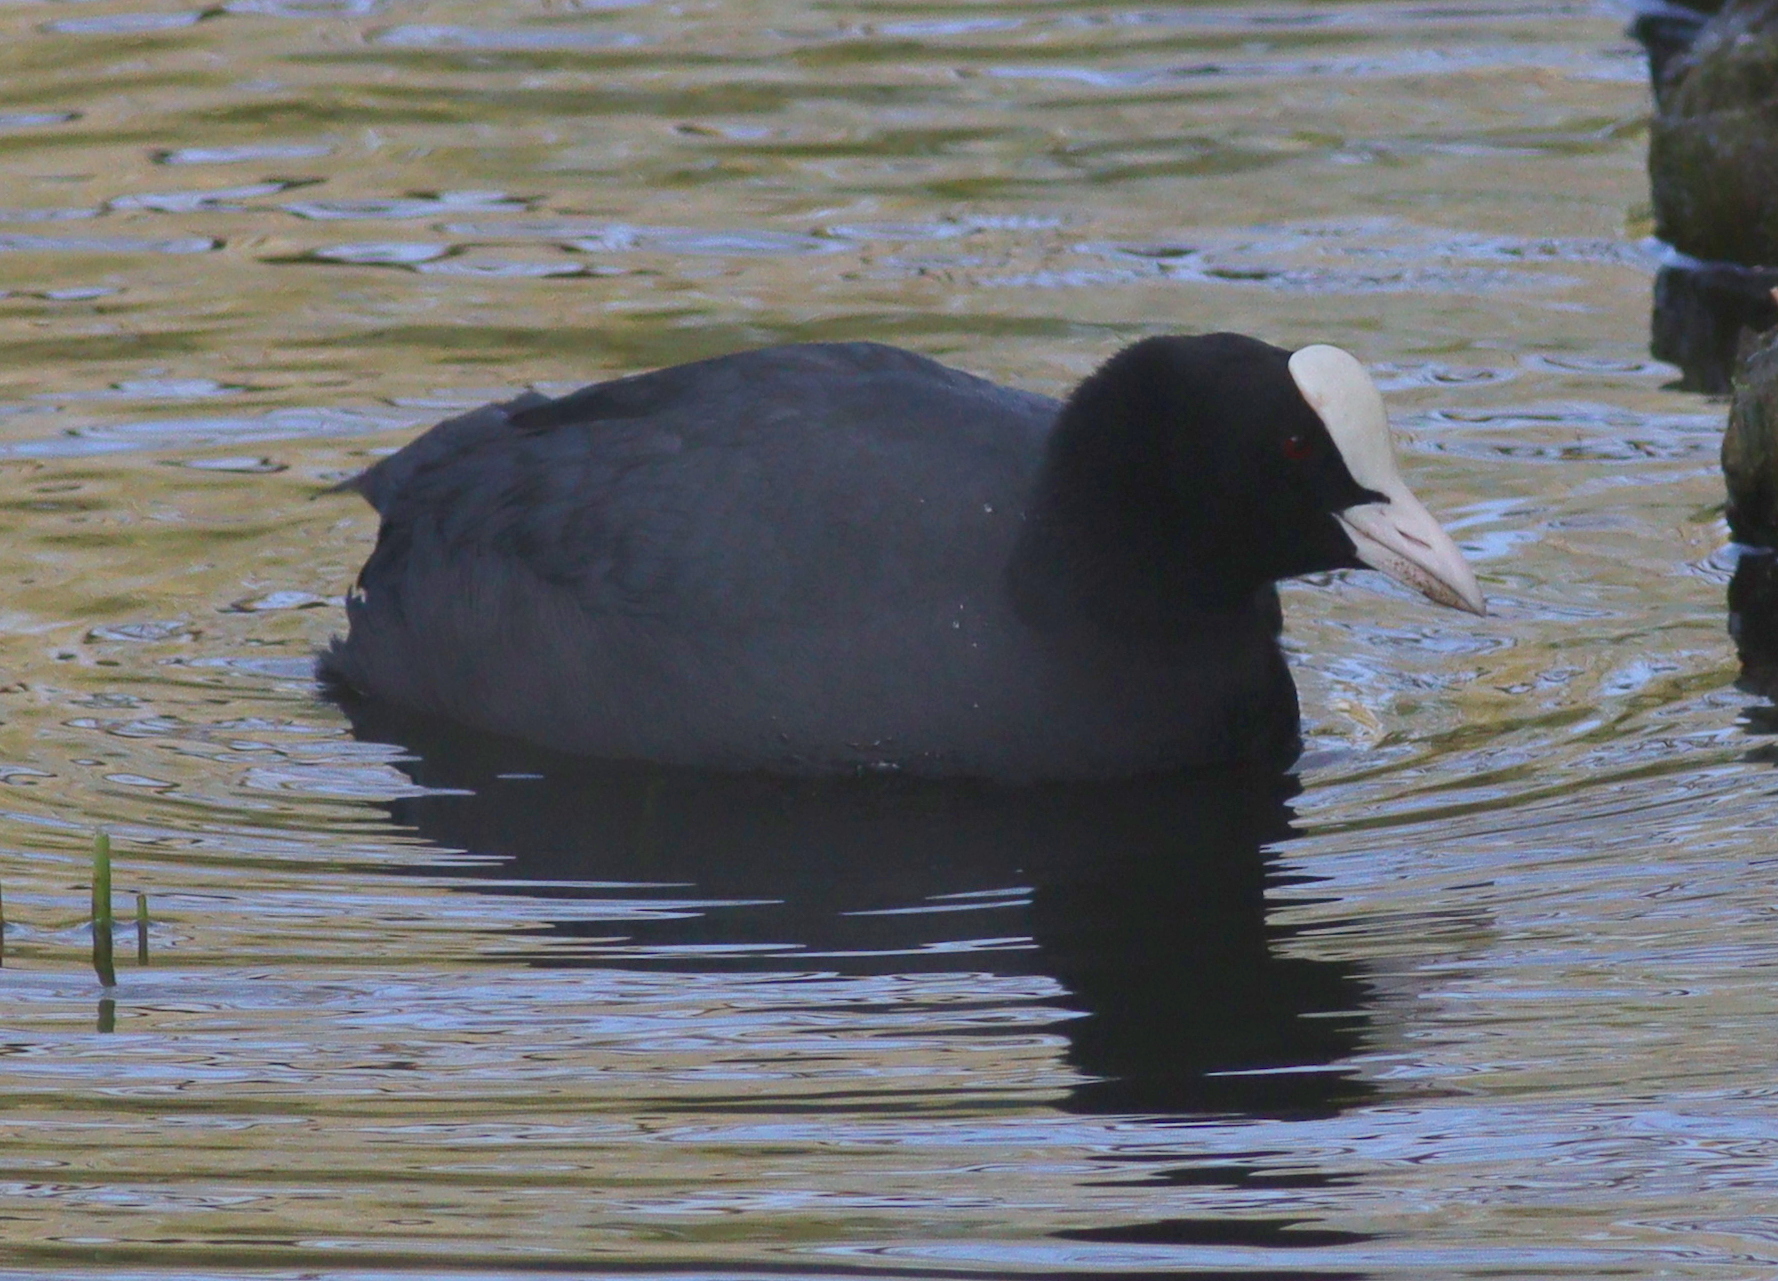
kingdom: Animalia
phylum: Chordata
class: Aves
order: Gruiformes
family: Rallidae
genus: Fulica
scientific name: Fulica atra
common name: Eurasian coot
